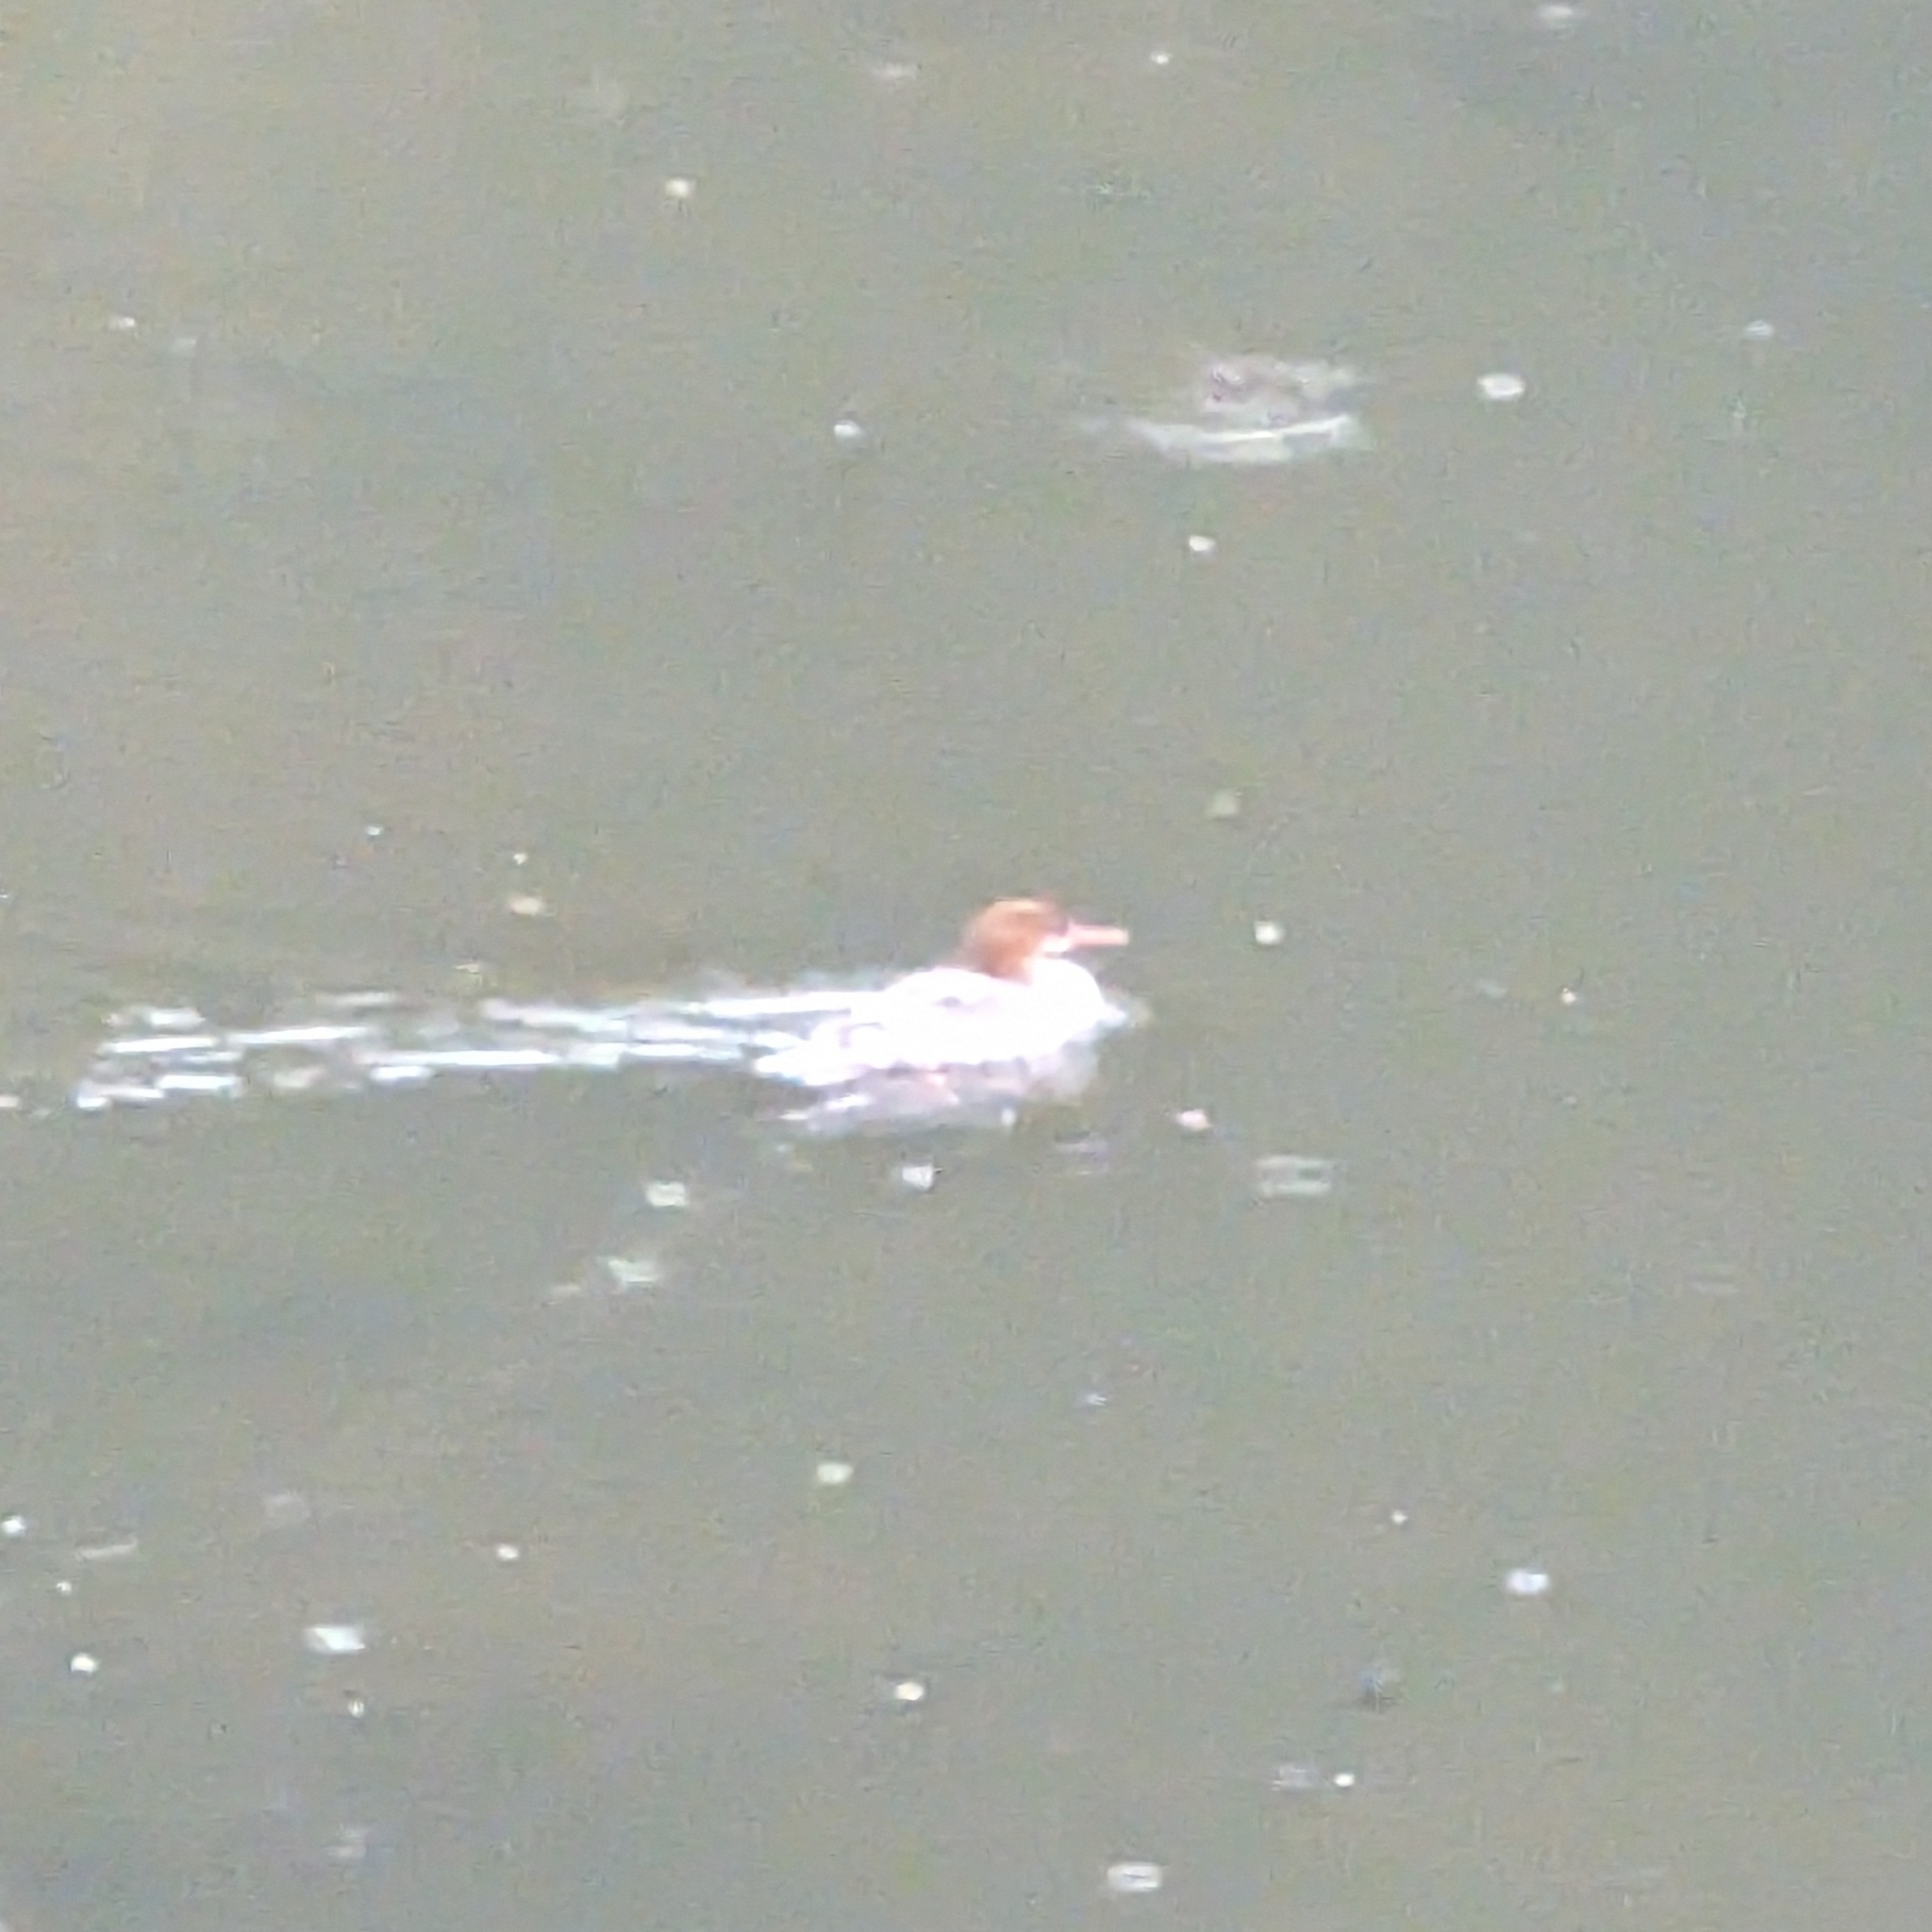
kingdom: Animalia
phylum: Chordata
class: Aves
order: Anseriformes
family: Anatidae
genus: Mergus
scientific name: Mergus merganser
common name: Common merganser
